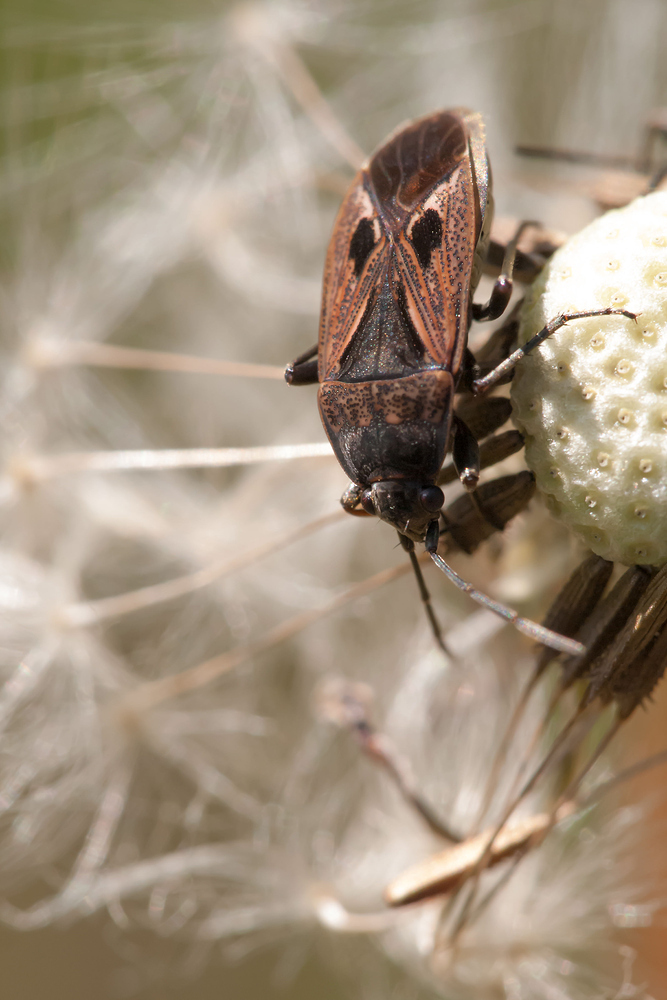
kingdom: Animalia
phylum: Arthropoda
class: Insecta
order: Hemiptera
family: Rhyparochromidae
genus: Rhyparochromus
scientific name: Rhyparochromus vulgaris
